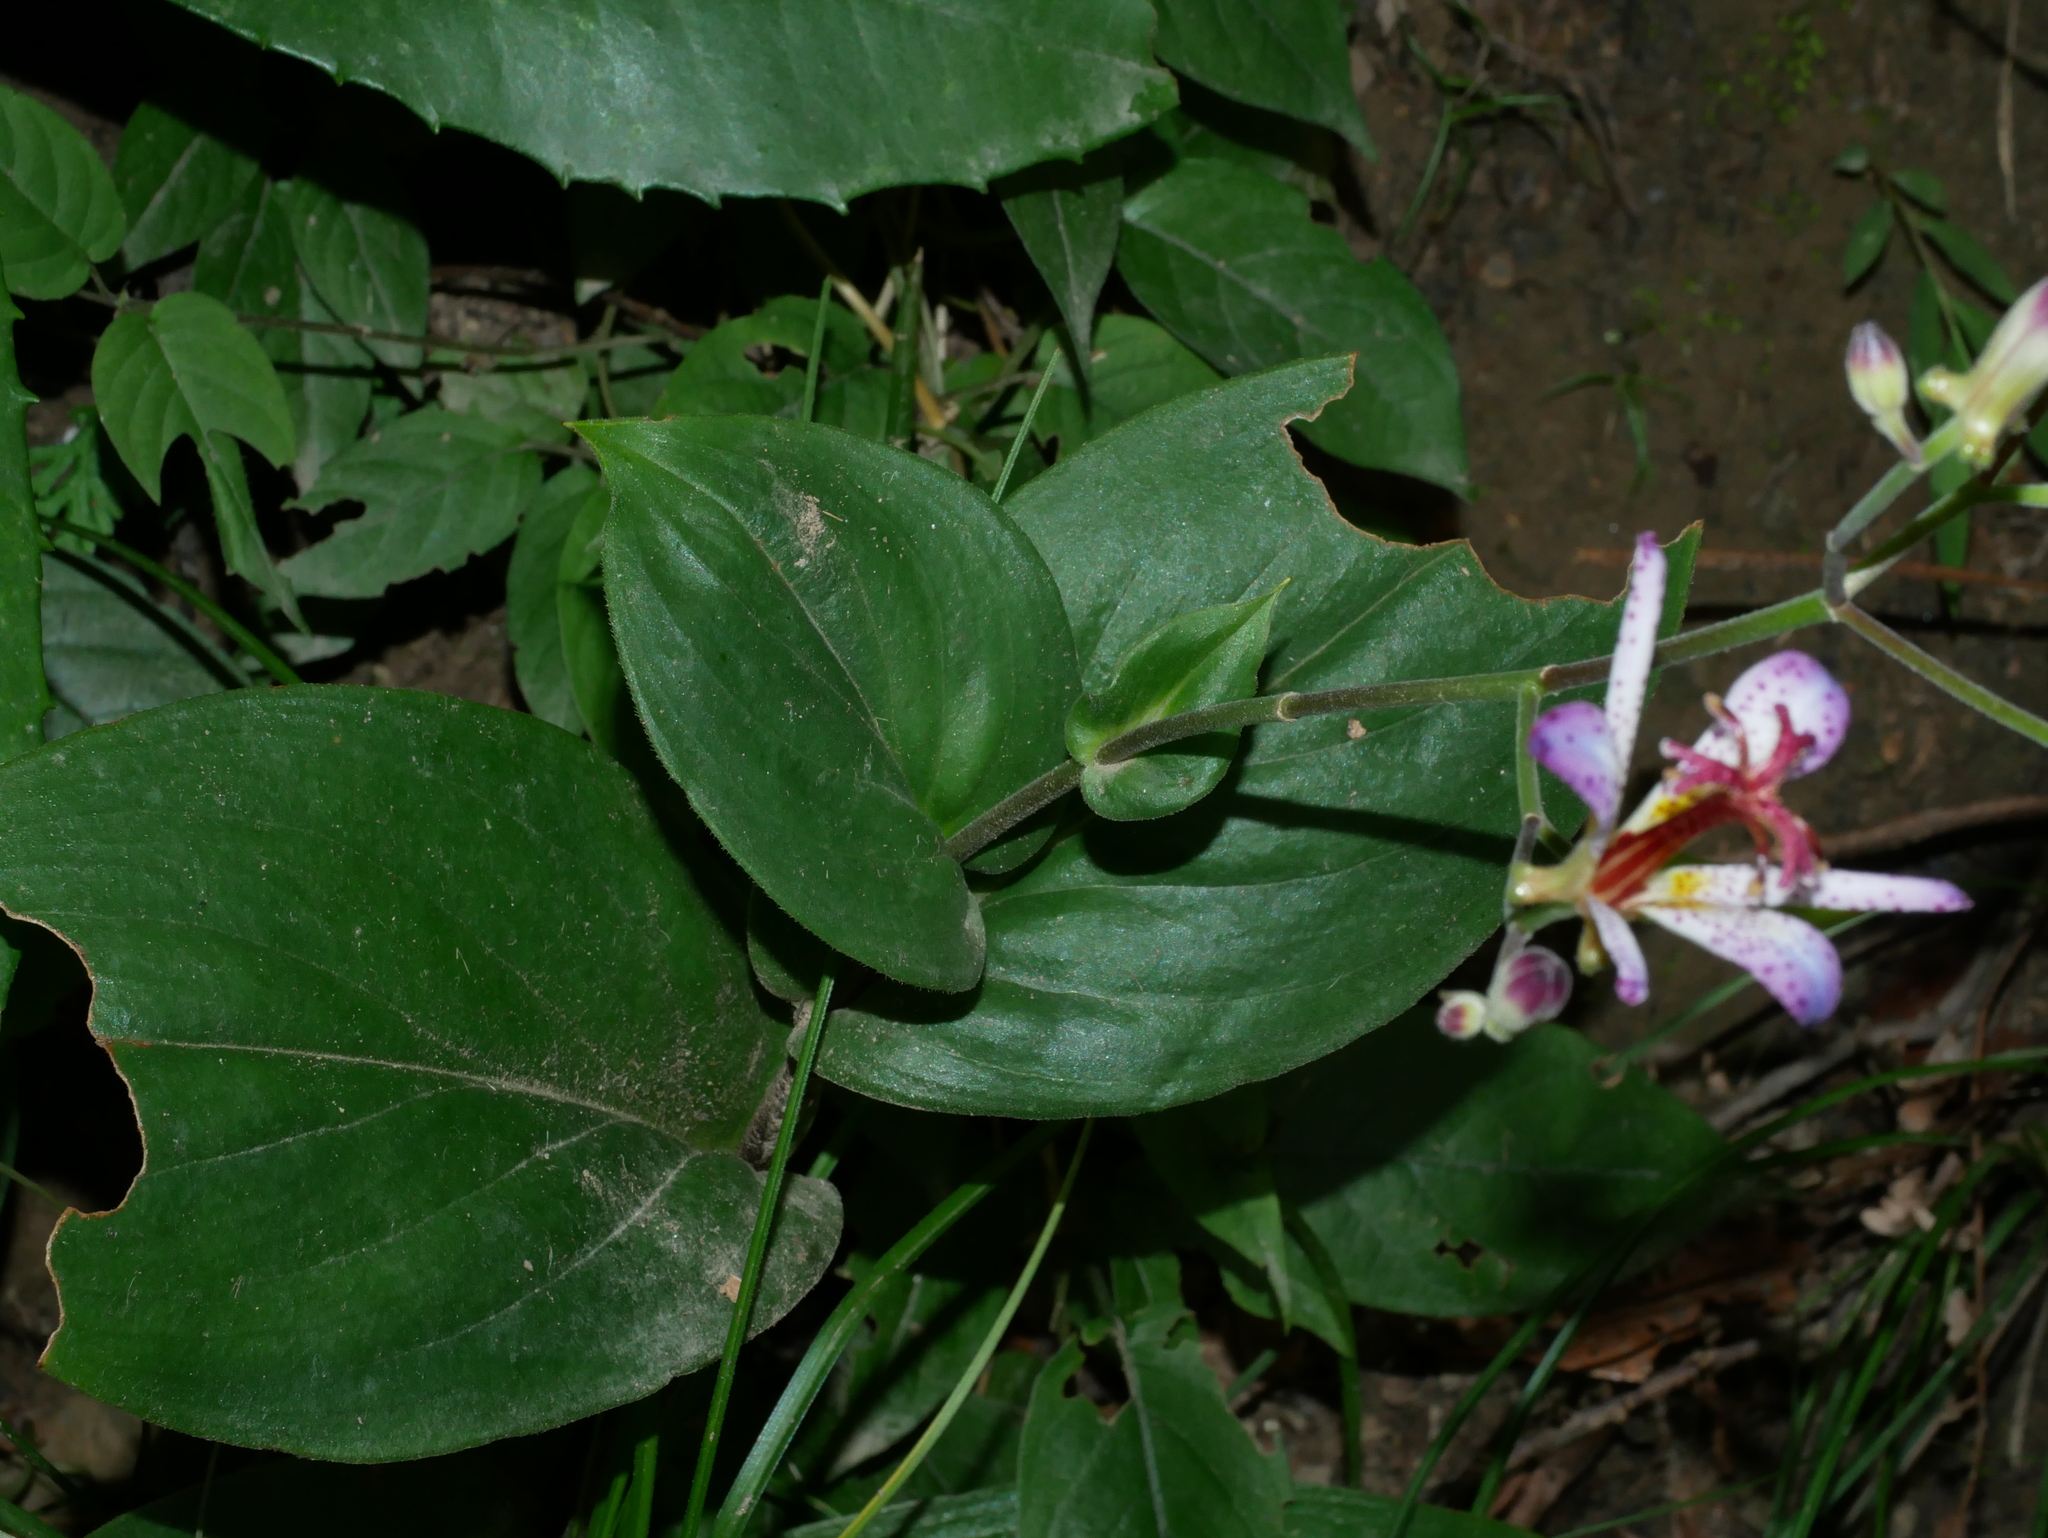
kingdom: Plantae
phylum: Tracheophyta
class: Liliopsida
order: Liliales
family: Liliaceae
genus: Tricyrtis
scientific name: Tricyrtis lasiocarpa
